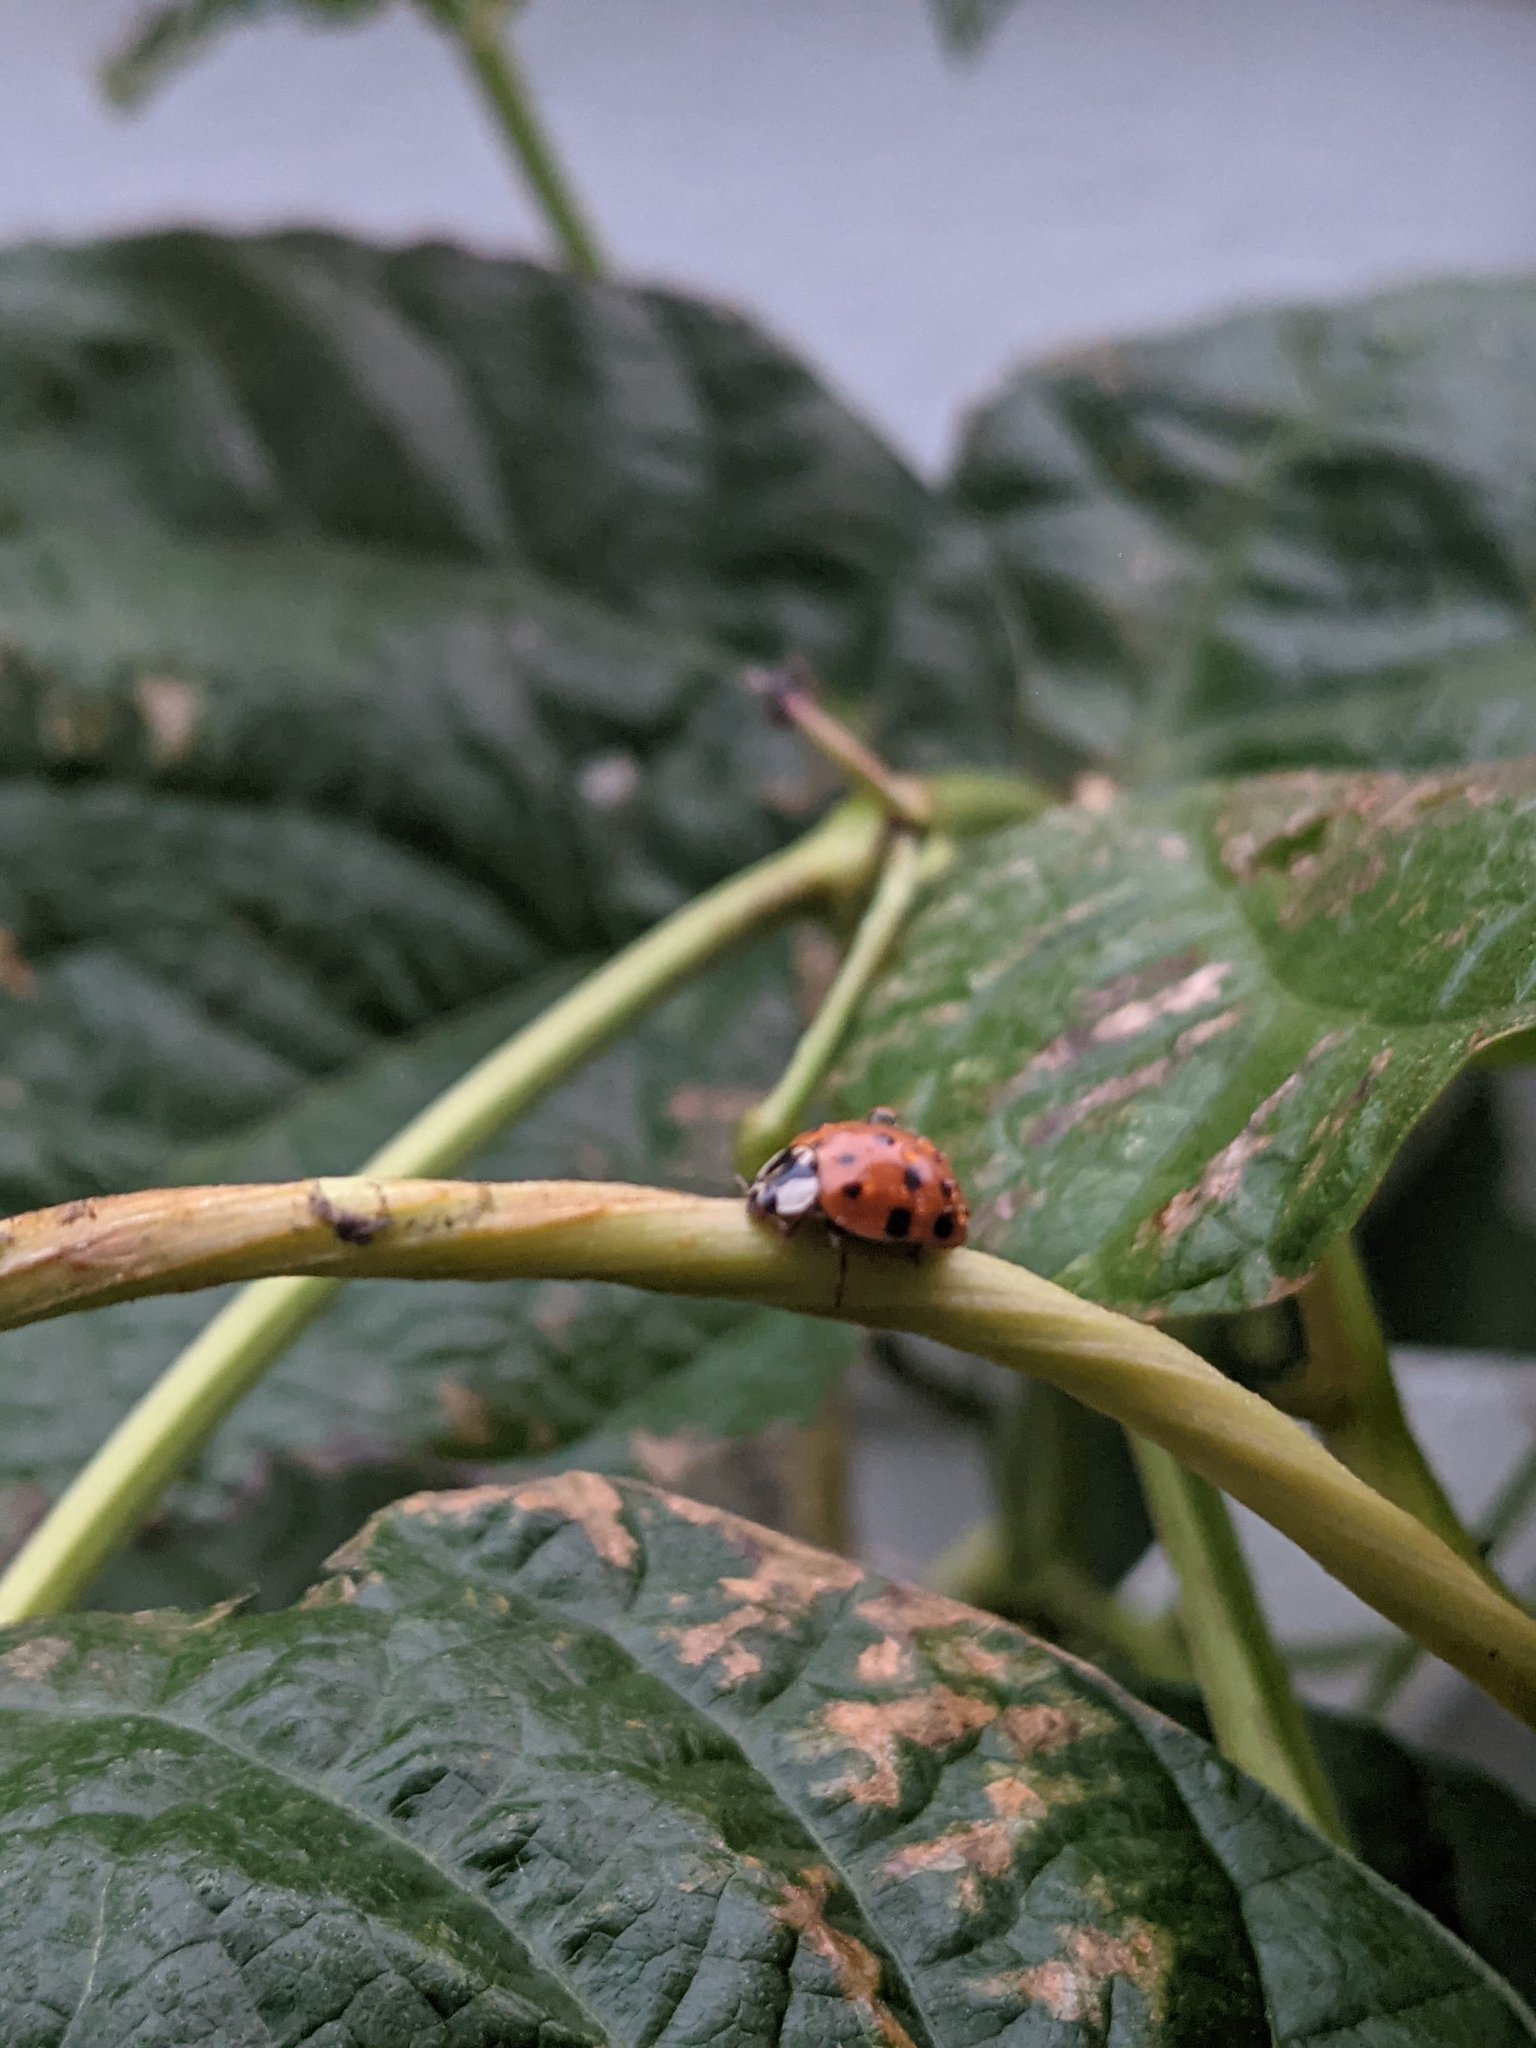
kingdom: Animalia
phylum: Arthropoda
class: Insecta
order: Coleoptera
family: Coccinellidae
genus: Harmonia
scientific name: Harmonia axyridis
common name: Harlequin ladybird
